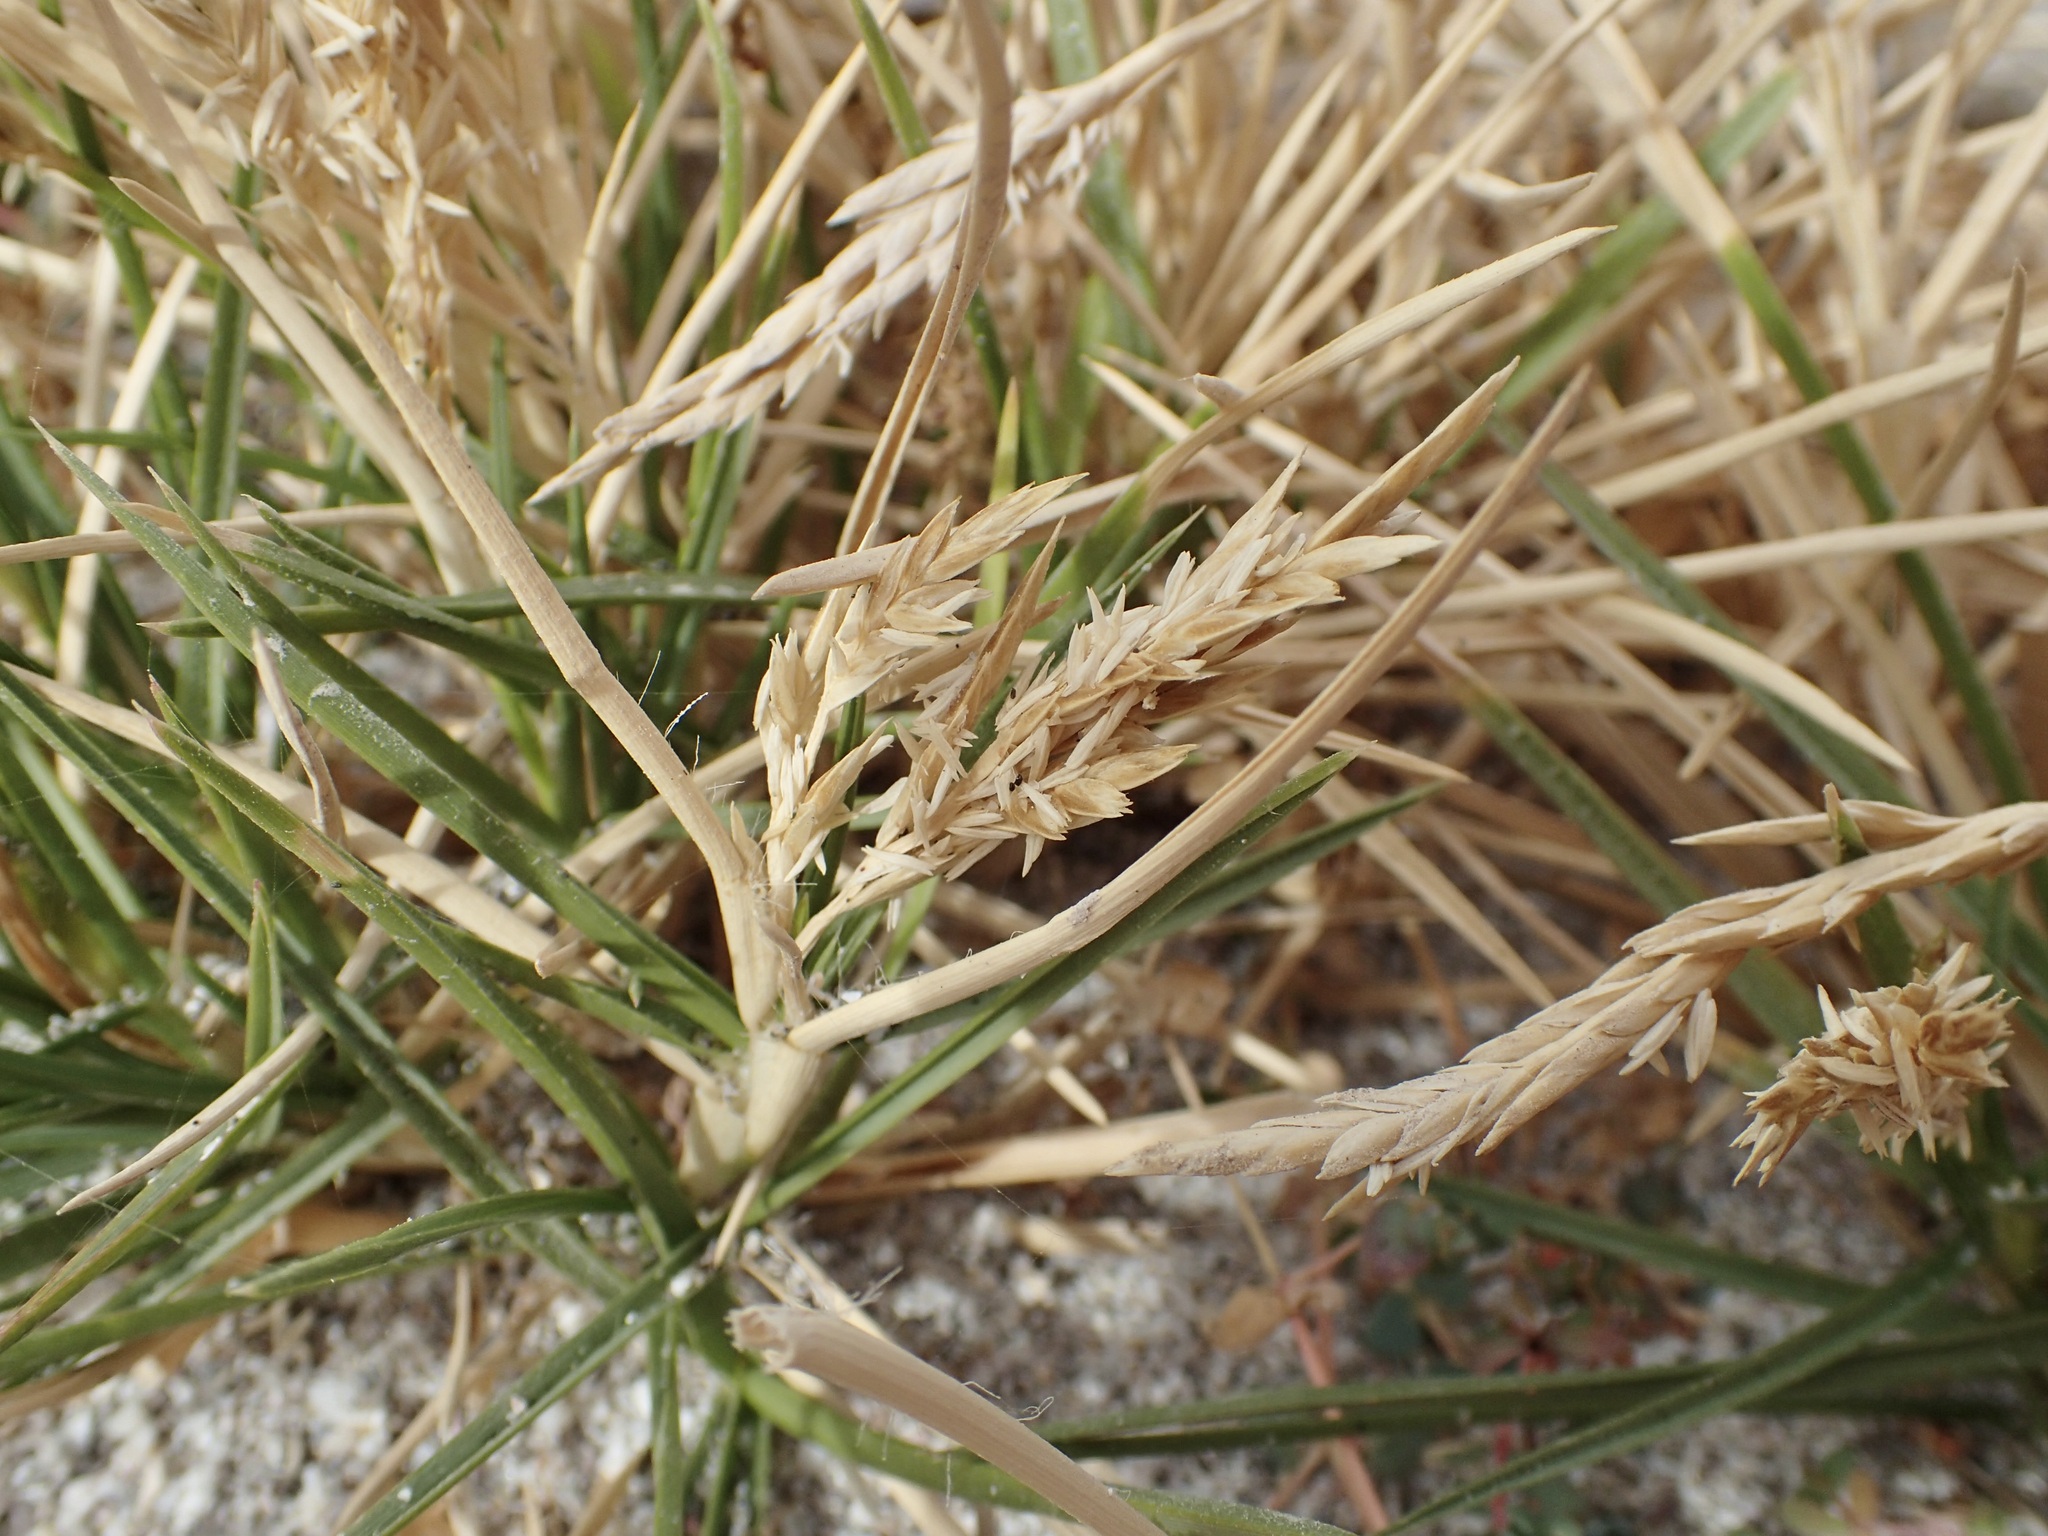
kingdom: Plantae
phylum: Tracheophyta
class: Liliopsida
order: Poales
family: Poaceae
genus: Jouvea
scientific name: Jouvea pilosa
